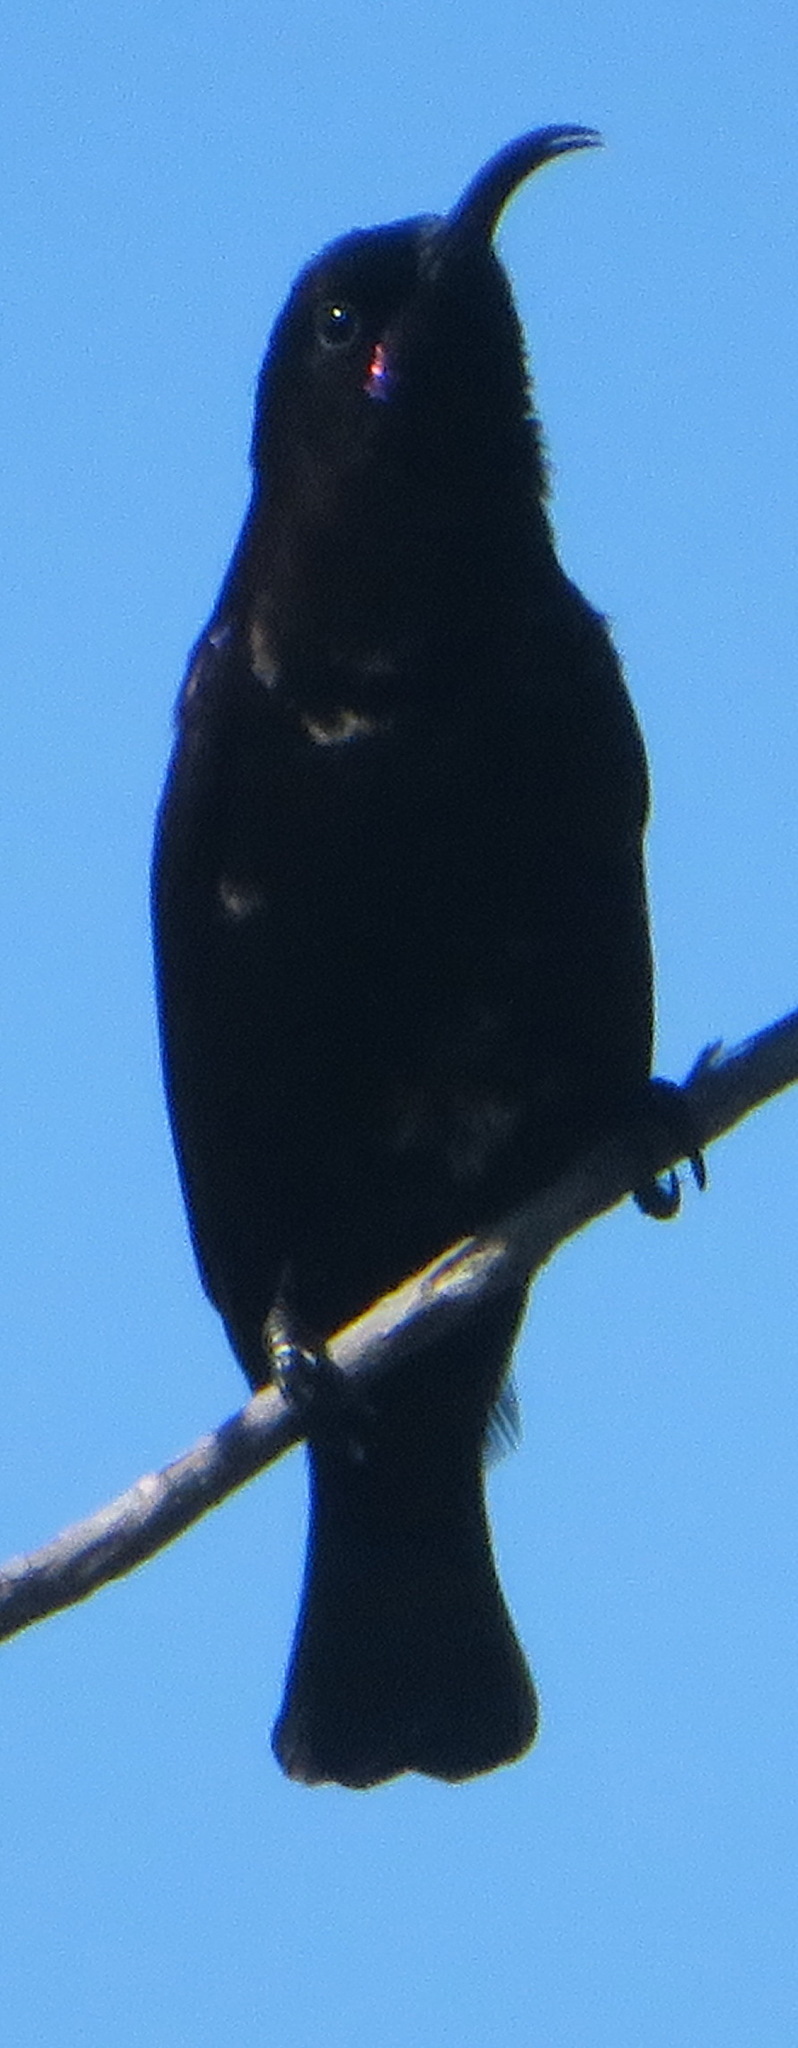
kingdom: Animalia
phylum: Chordata
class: Aves
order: Passeriformes
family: Nectariniidae
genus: Chalcomitra
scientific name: Chalcomitra amethystina
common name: Amethyst sunbird
